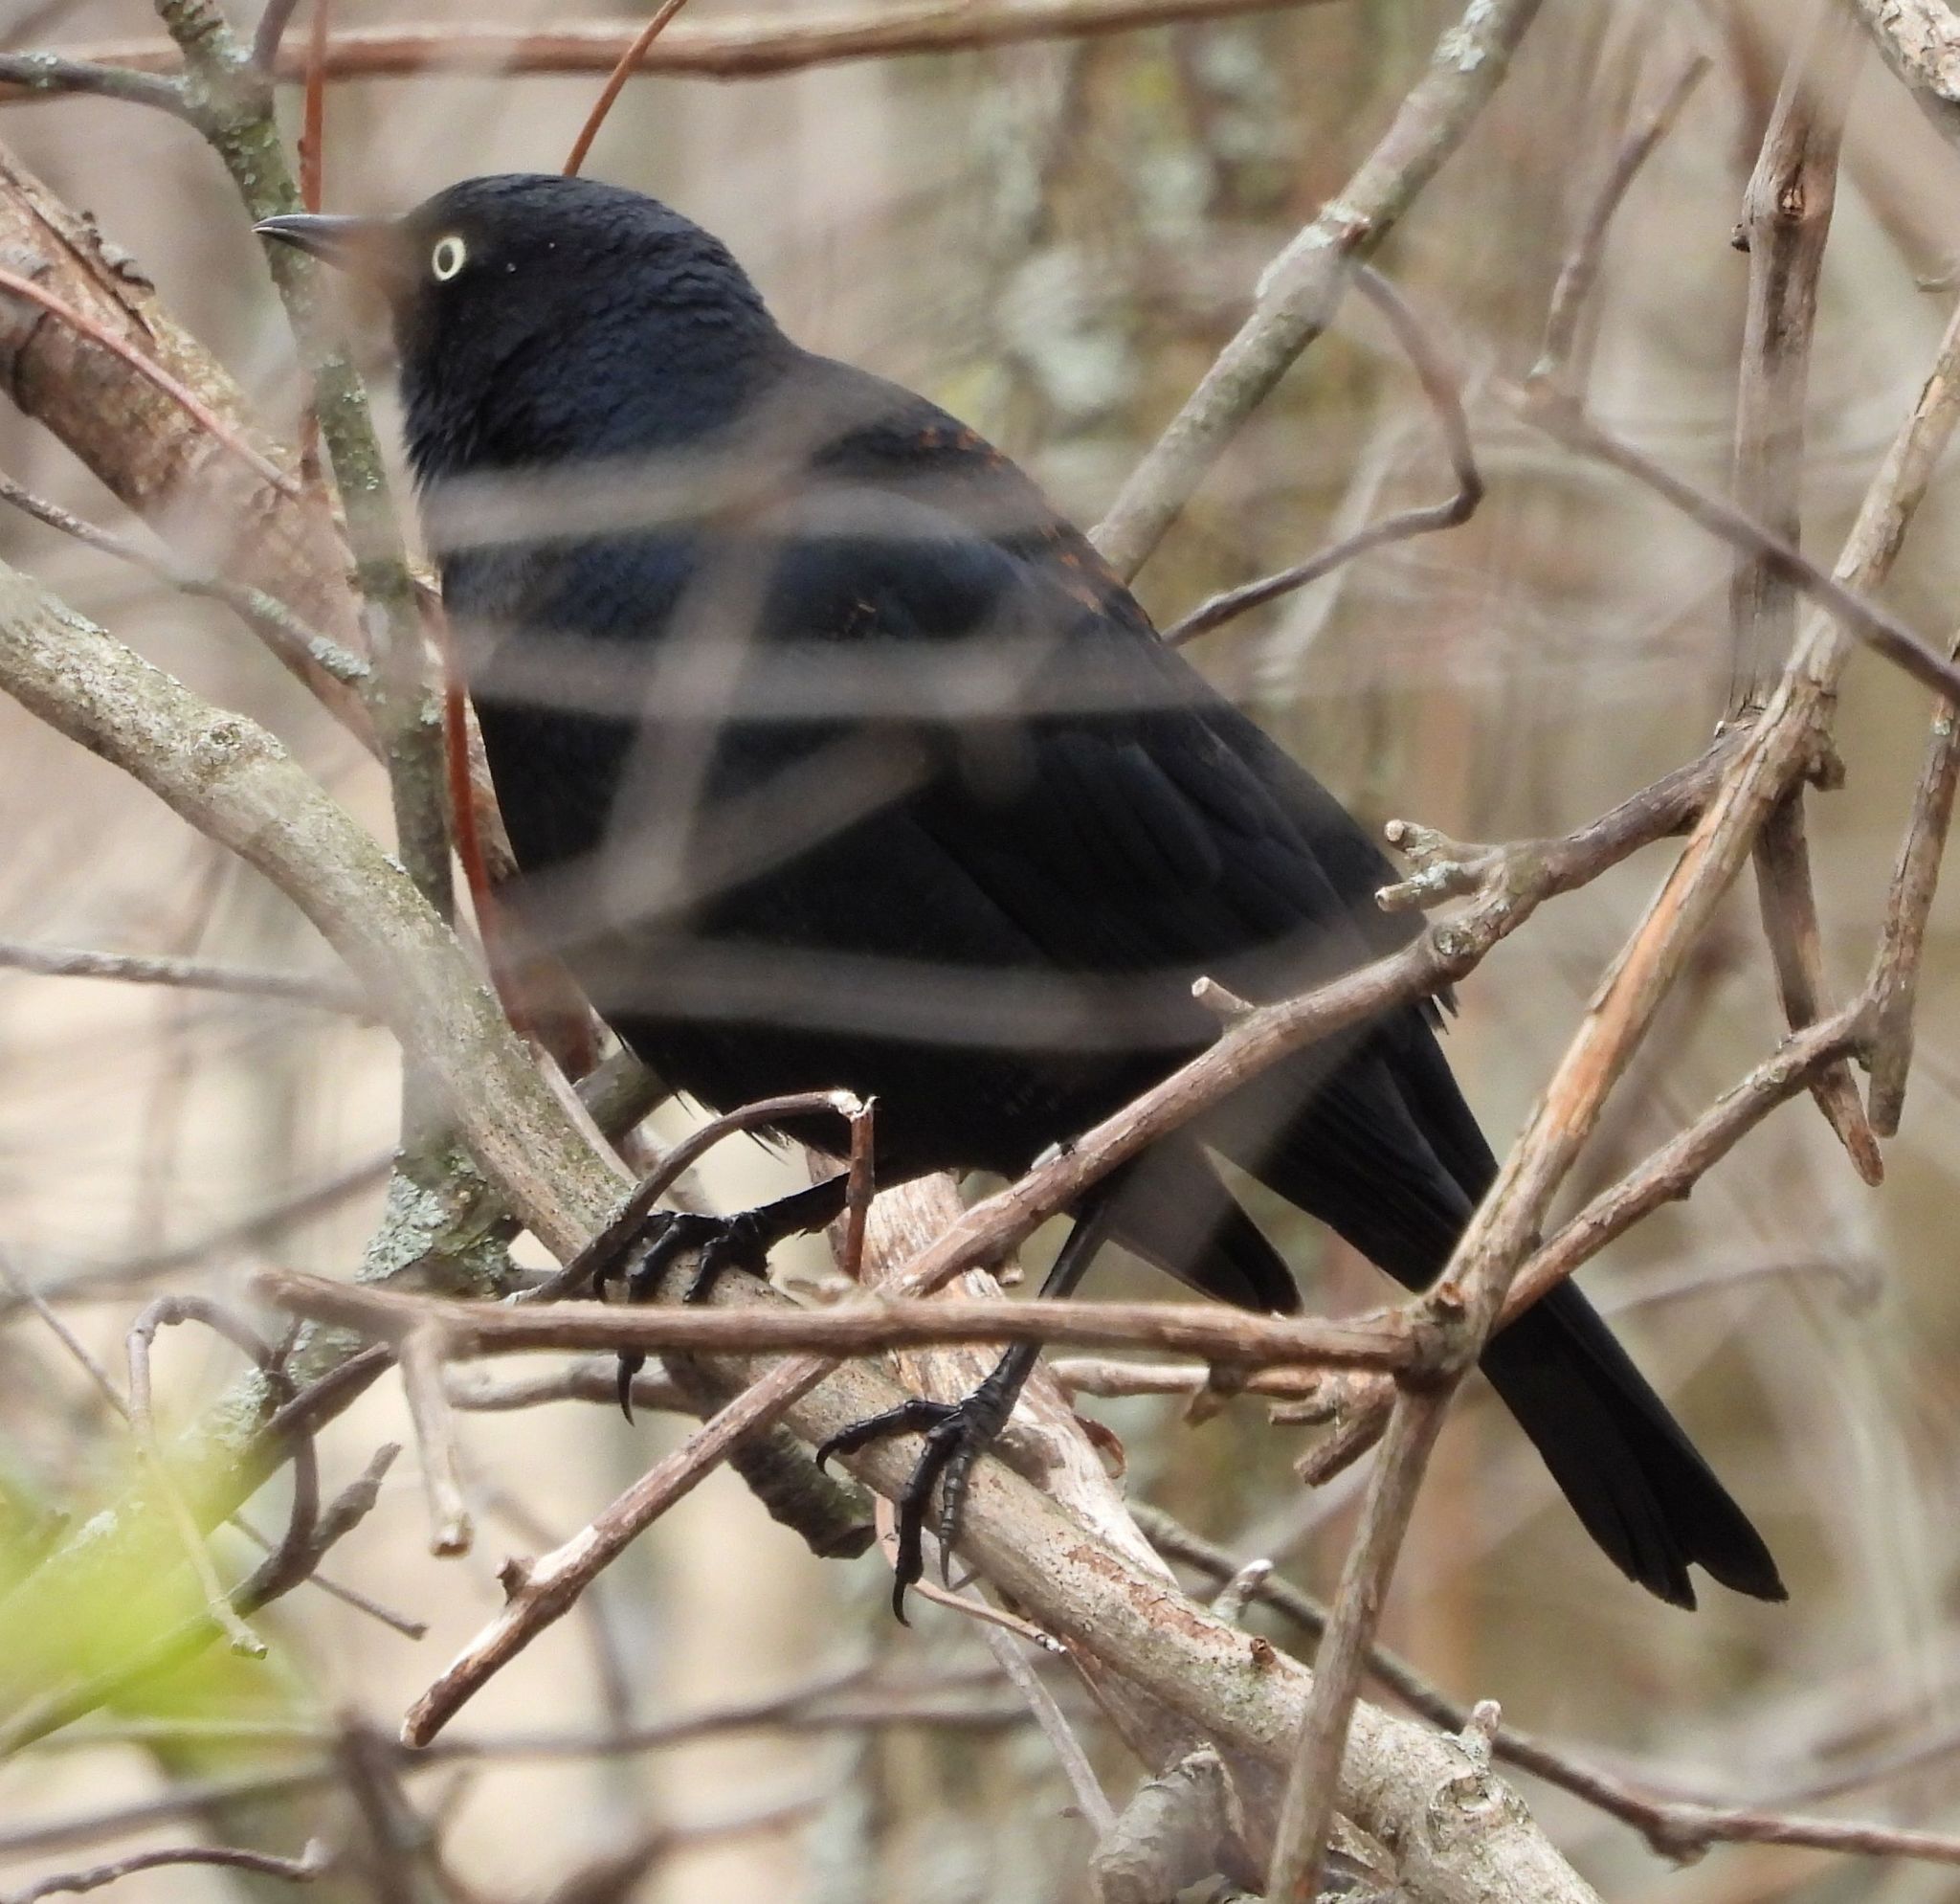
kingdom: Animalia
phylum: Chordata
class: Aves
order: Passeriformes
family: Icteridae
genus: Euphagus
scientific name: Euphagus carolinus
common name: Rusty blackbird
